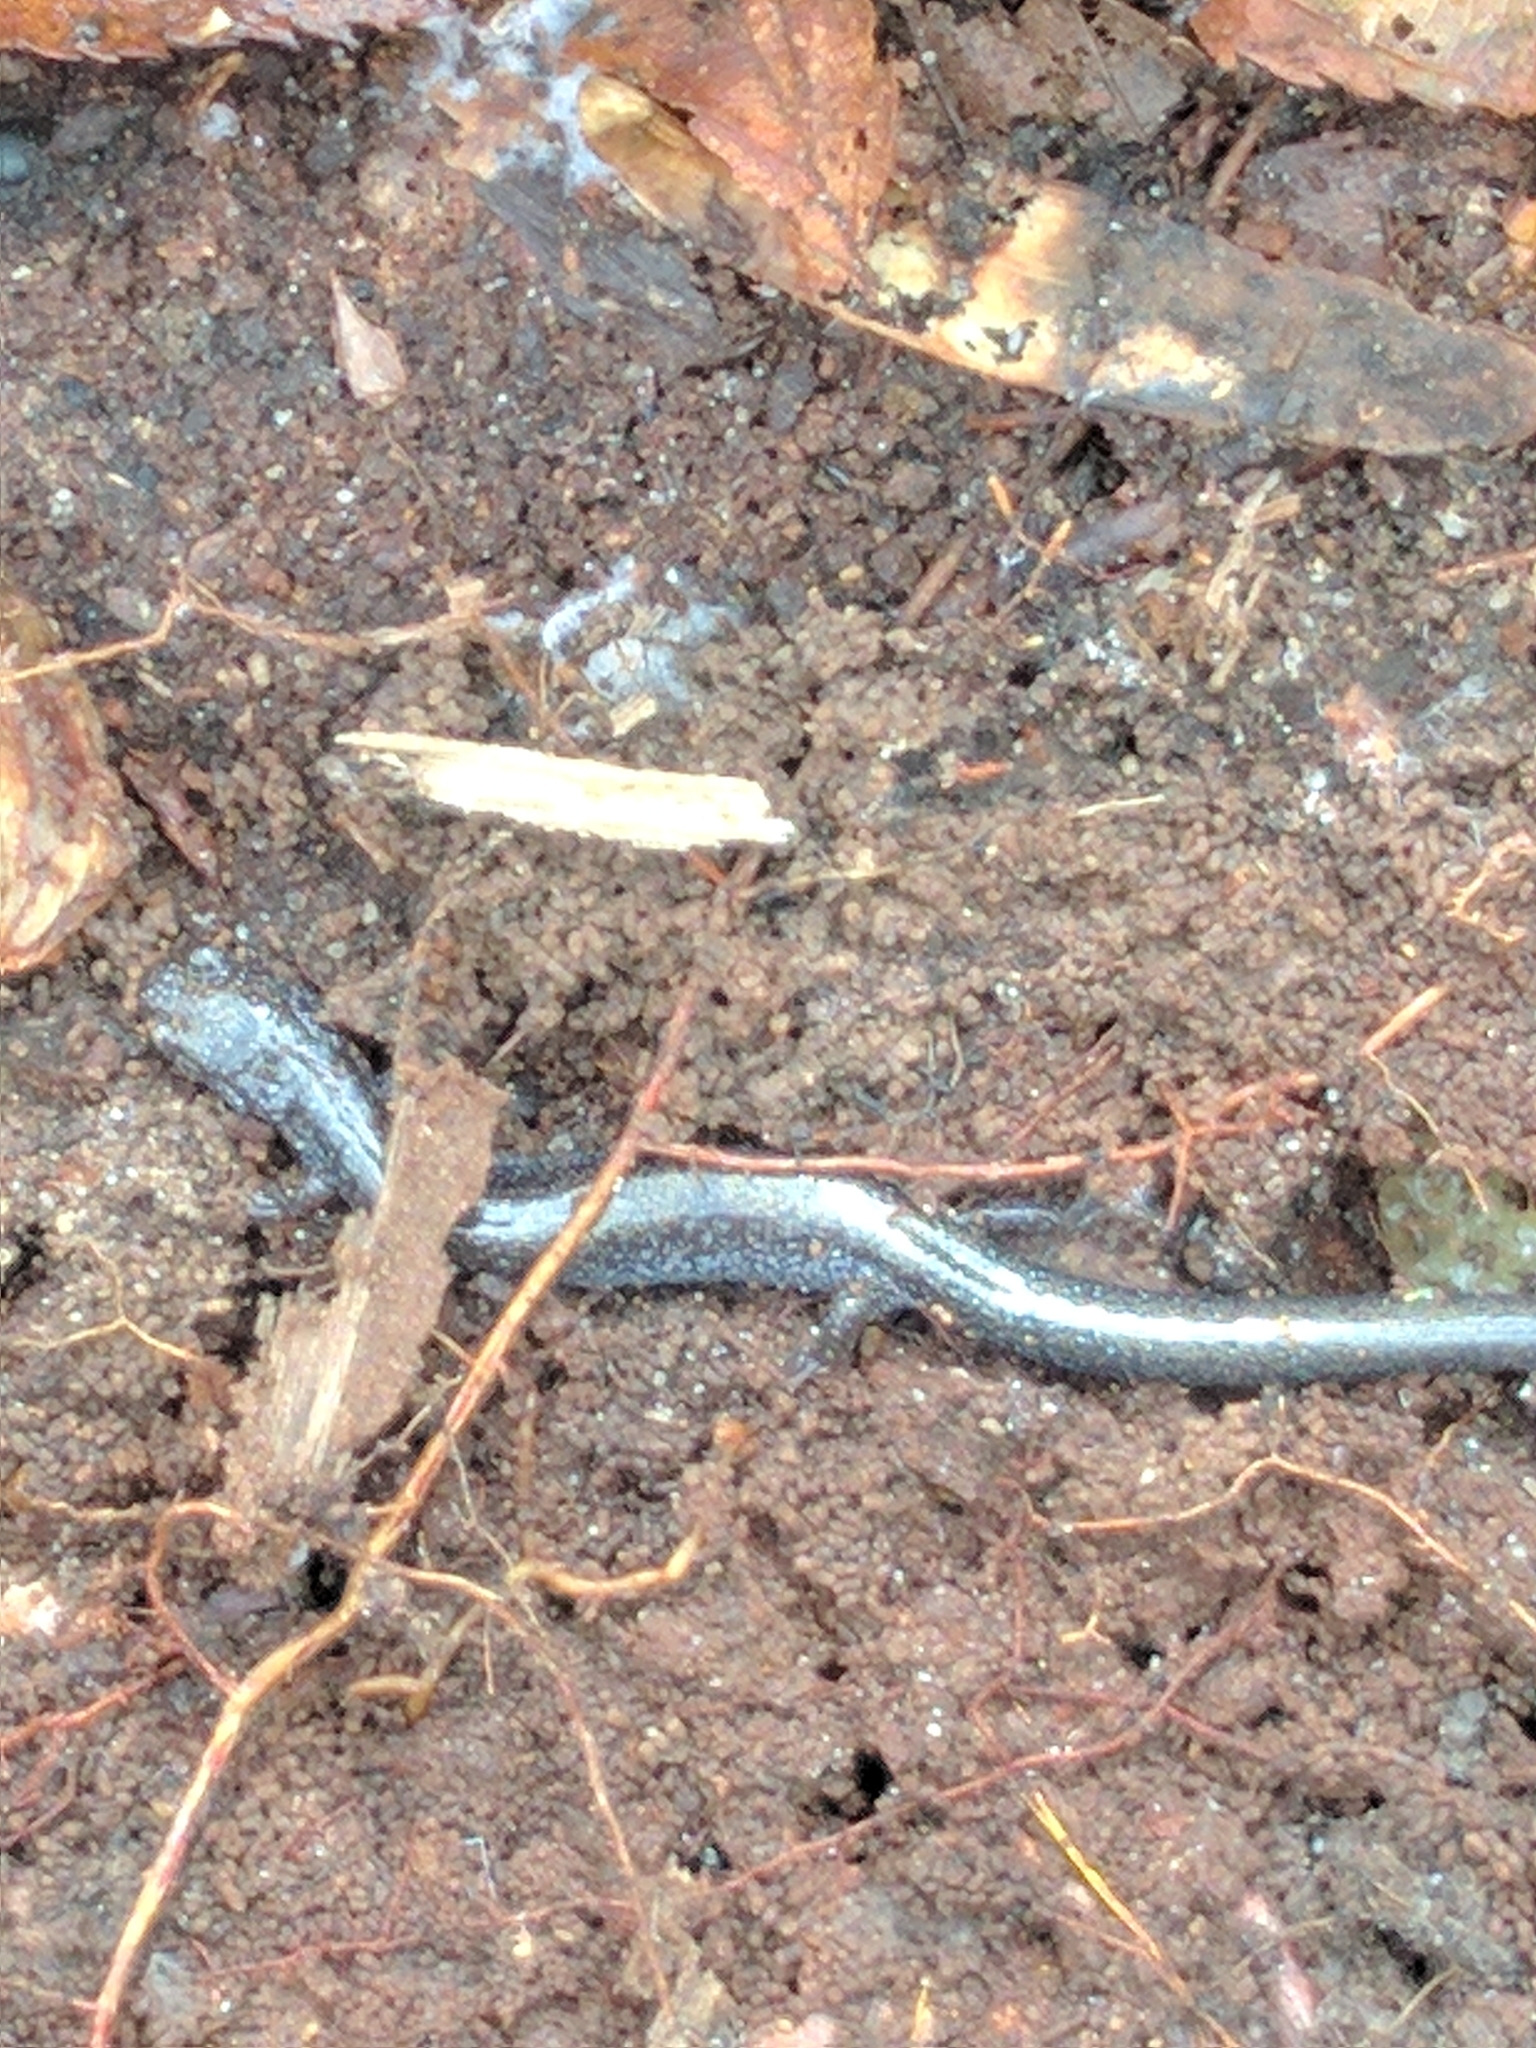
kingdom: Animalia
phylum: Chordata
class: Amphibia
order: Caudata
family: Plethodontidae
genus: Plethodon
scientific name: Plethodon cinereus
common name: Redback salamander
